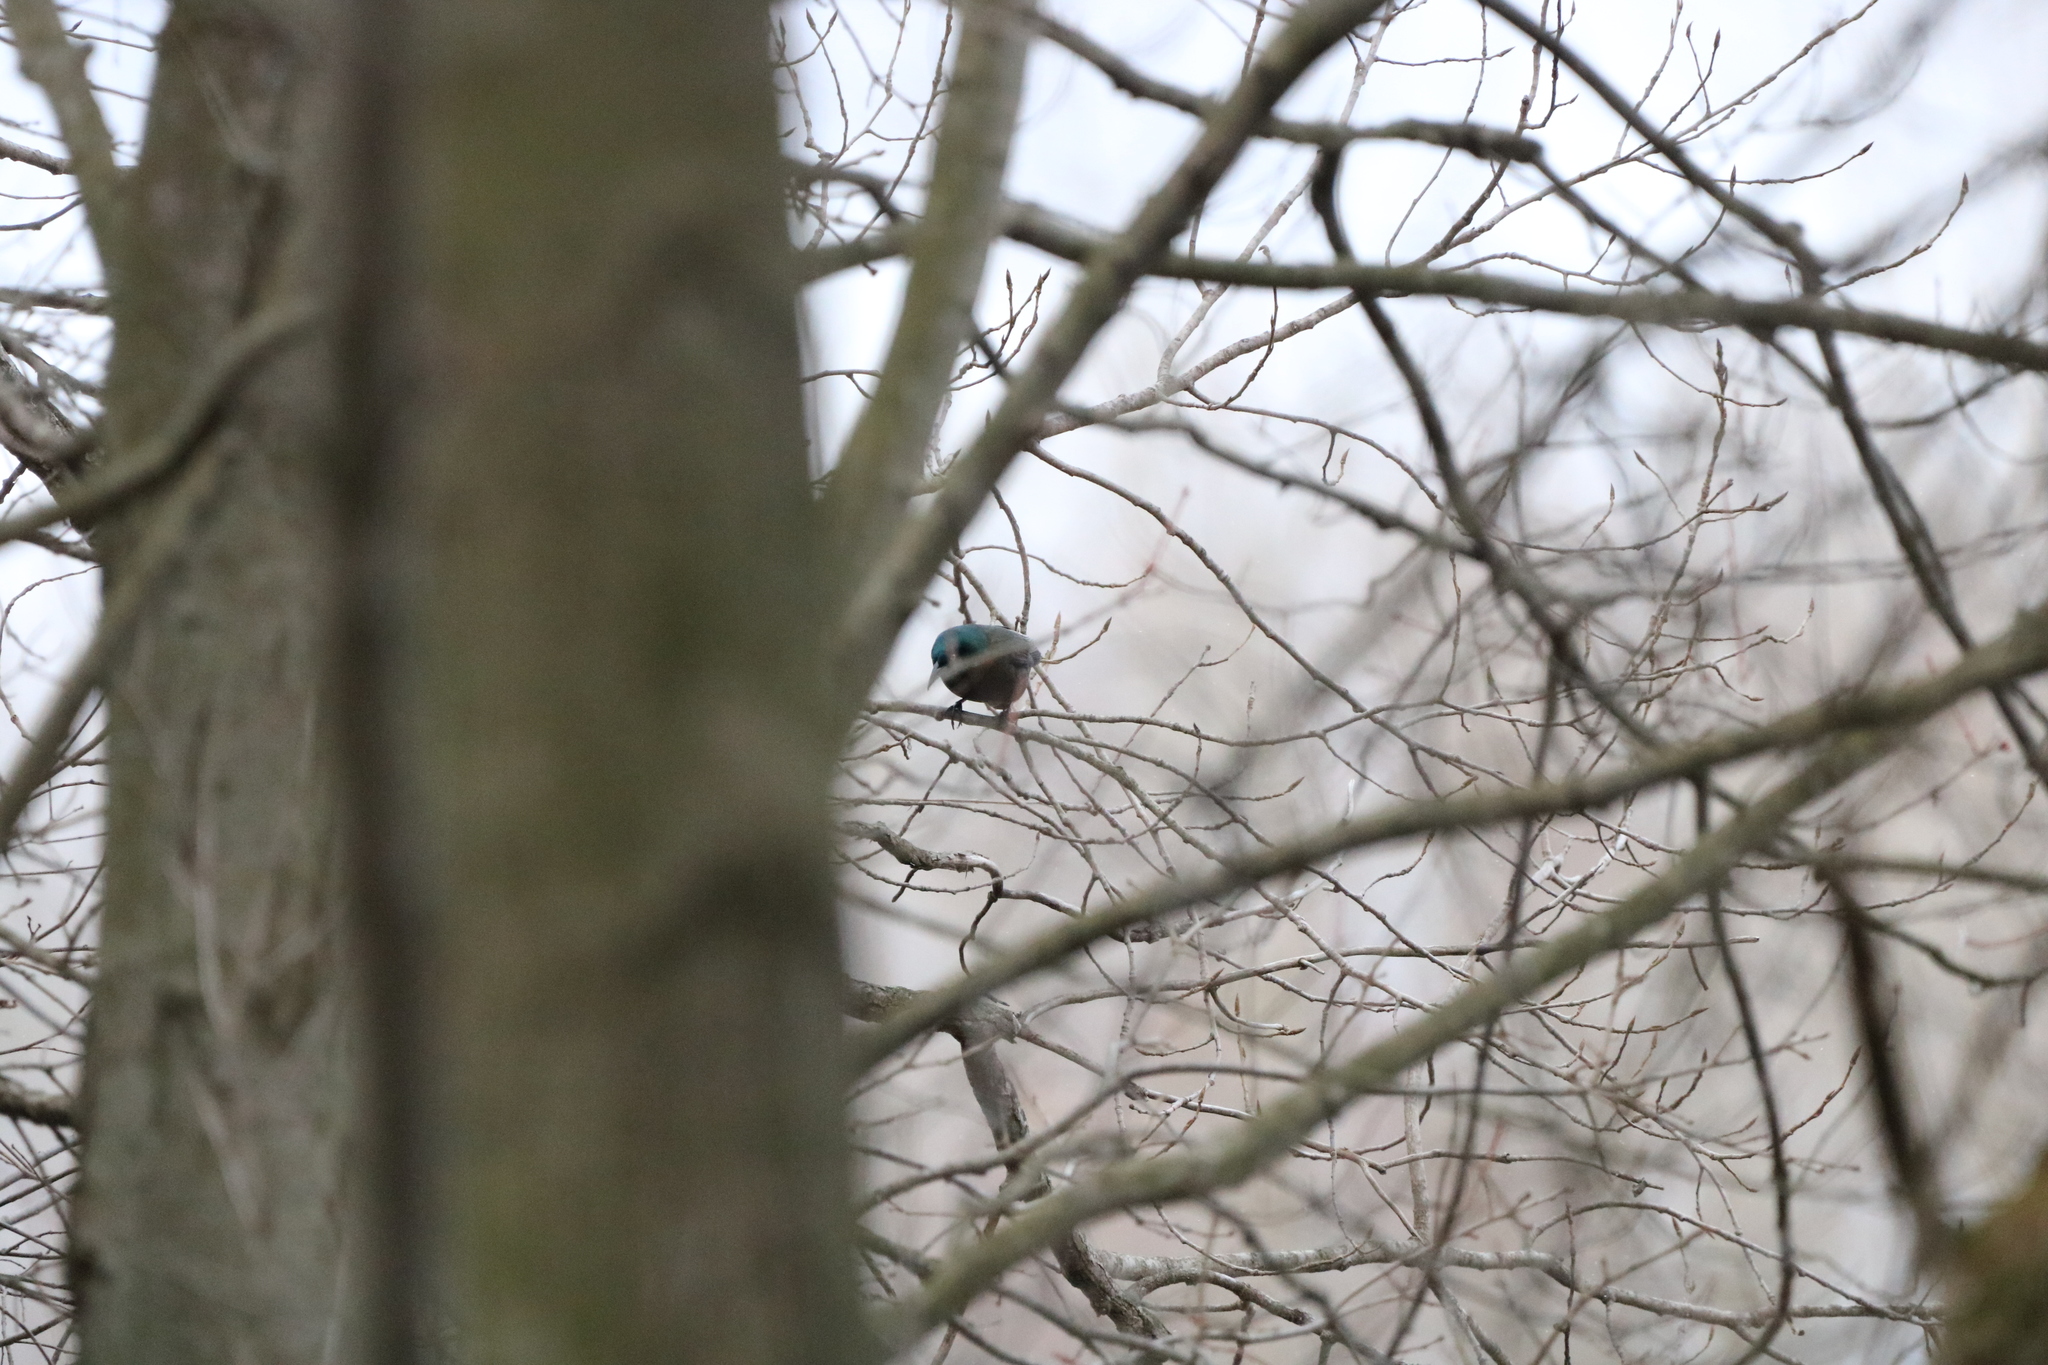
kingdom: Animalia
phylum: Chordata
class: Aves
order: Passeriformes
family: Icteridae
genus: Quiscalus
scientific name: Quiscalus quiscula
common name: Common grackle
